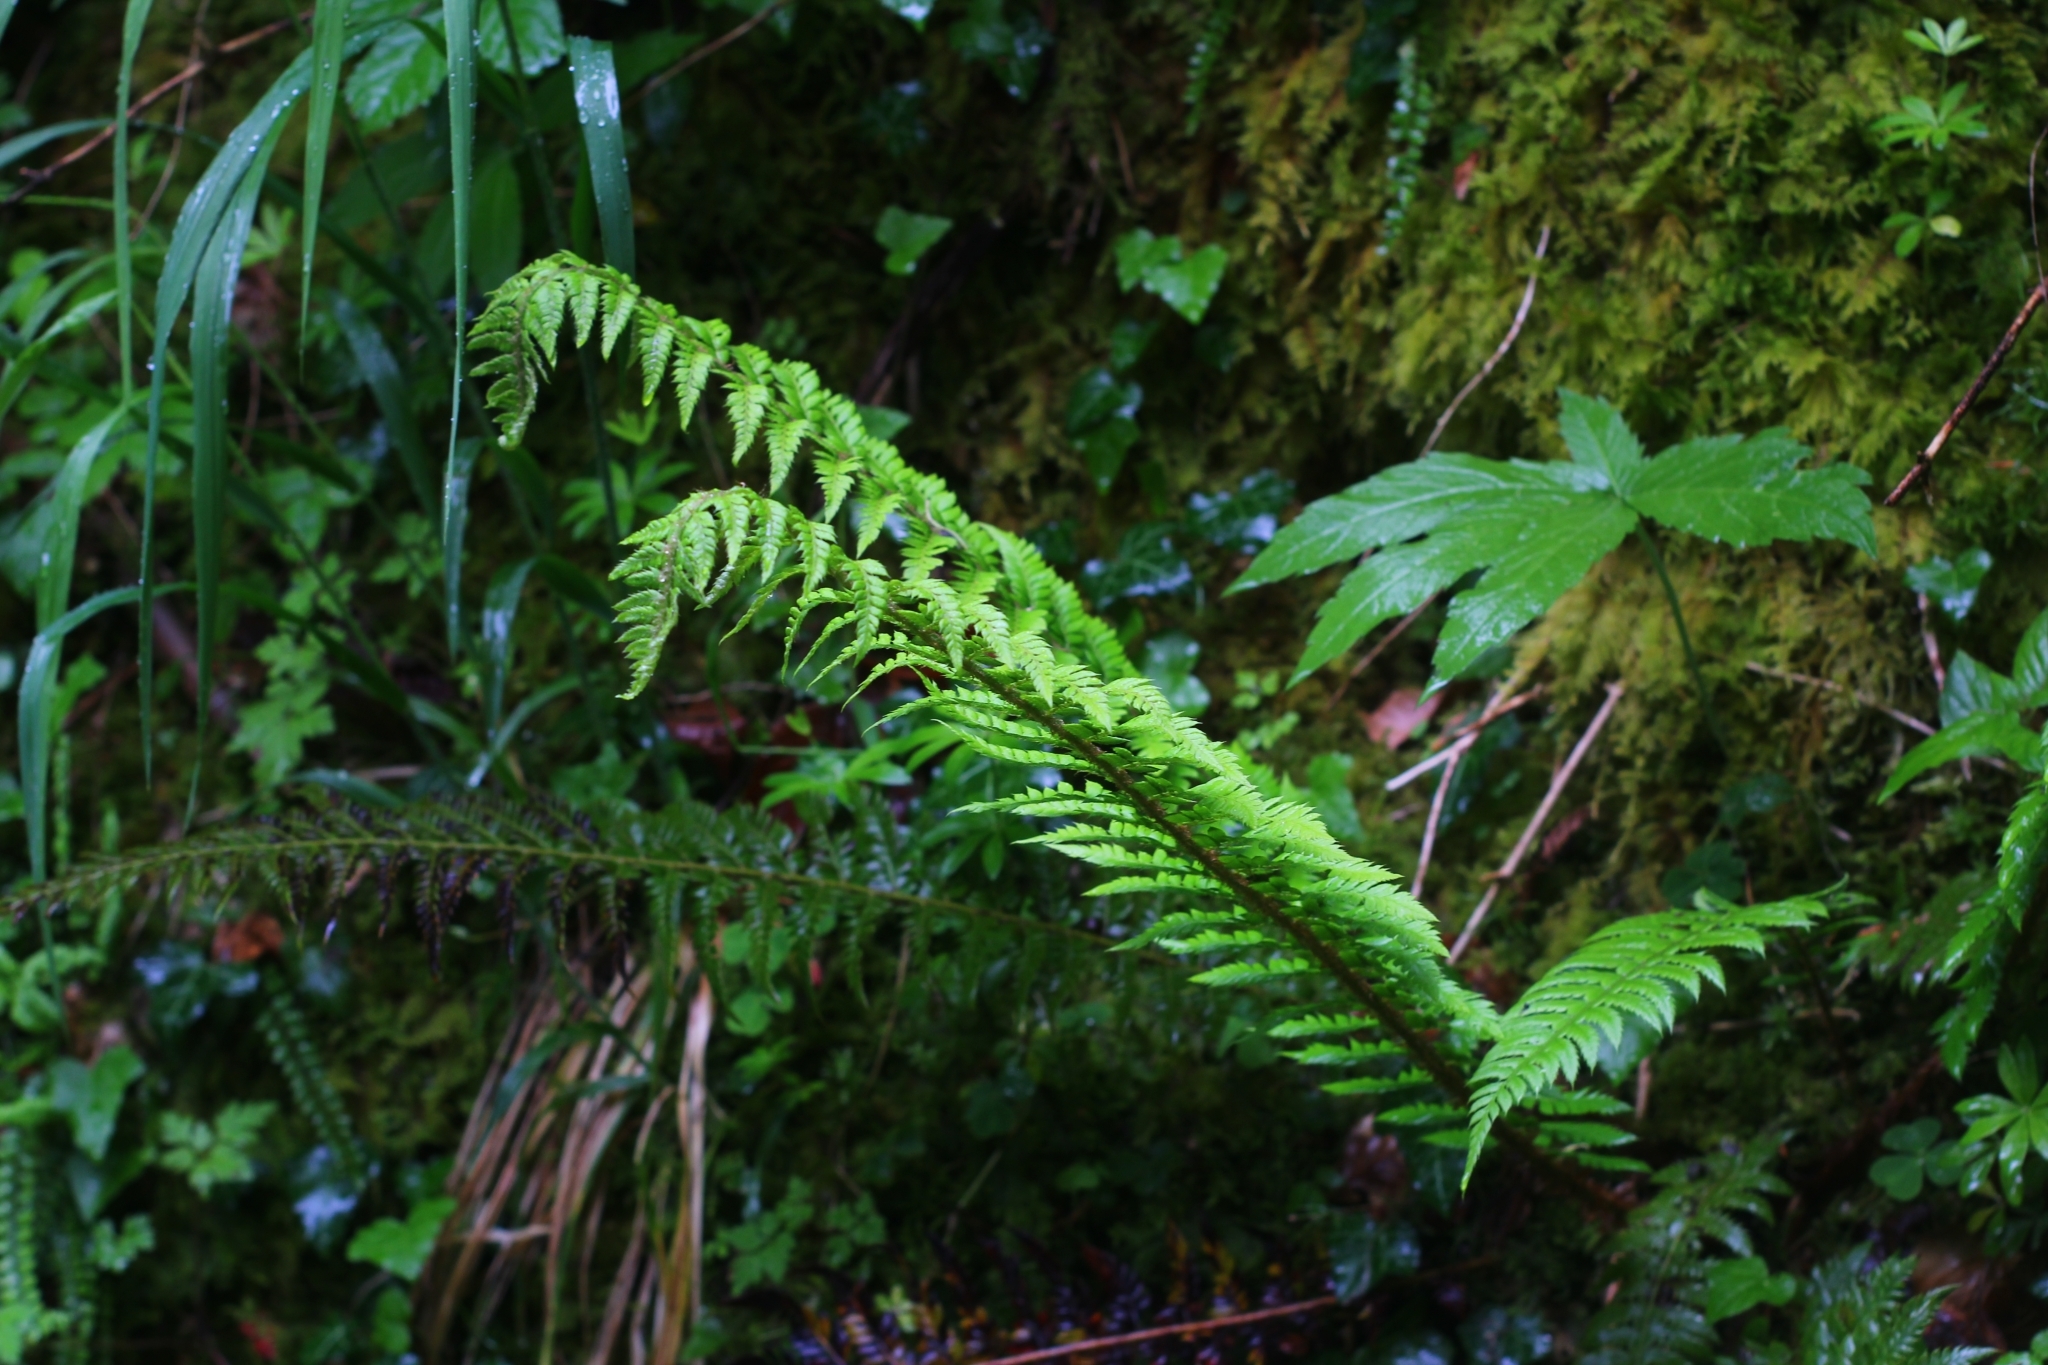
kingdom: Plantae
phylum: Tracheophyta
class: Polypodiopsida
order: Polypodiales
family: Dryopteridaceae
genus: Polystichum
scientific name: Polystichum aculeatum
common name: Hard shield-fern
